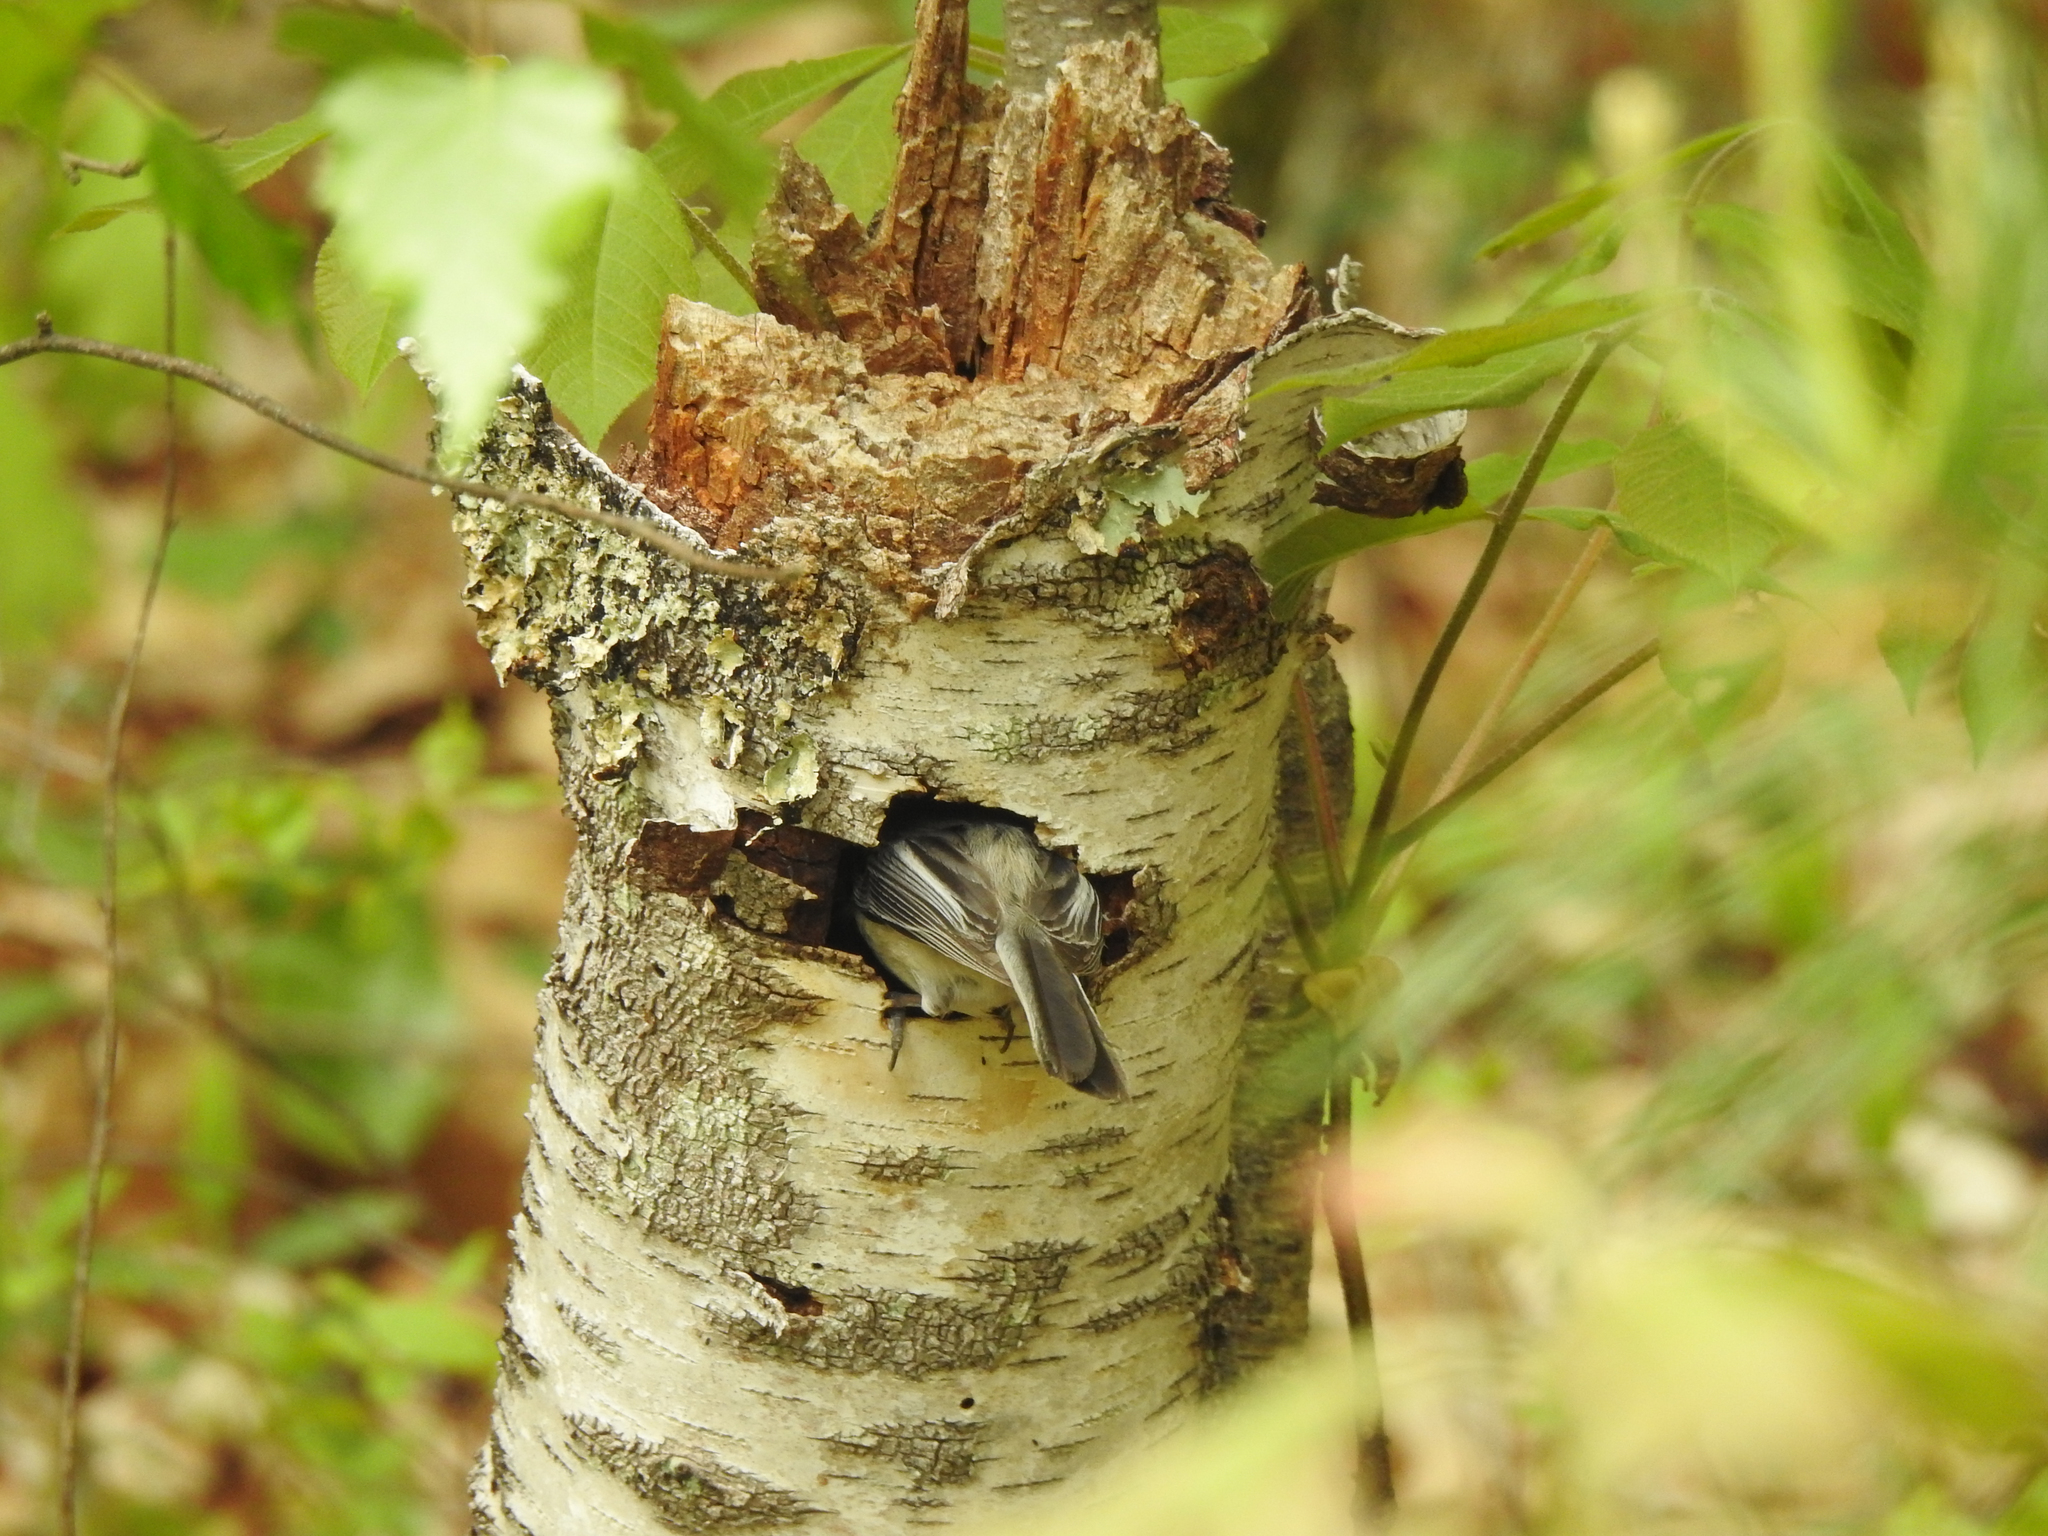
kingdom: Animalia
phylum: Chordata
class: Aves
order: Passeriformes
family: Paridae
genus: Poecile
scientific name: Poecile atricapillus
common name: Black-capped chickadee
